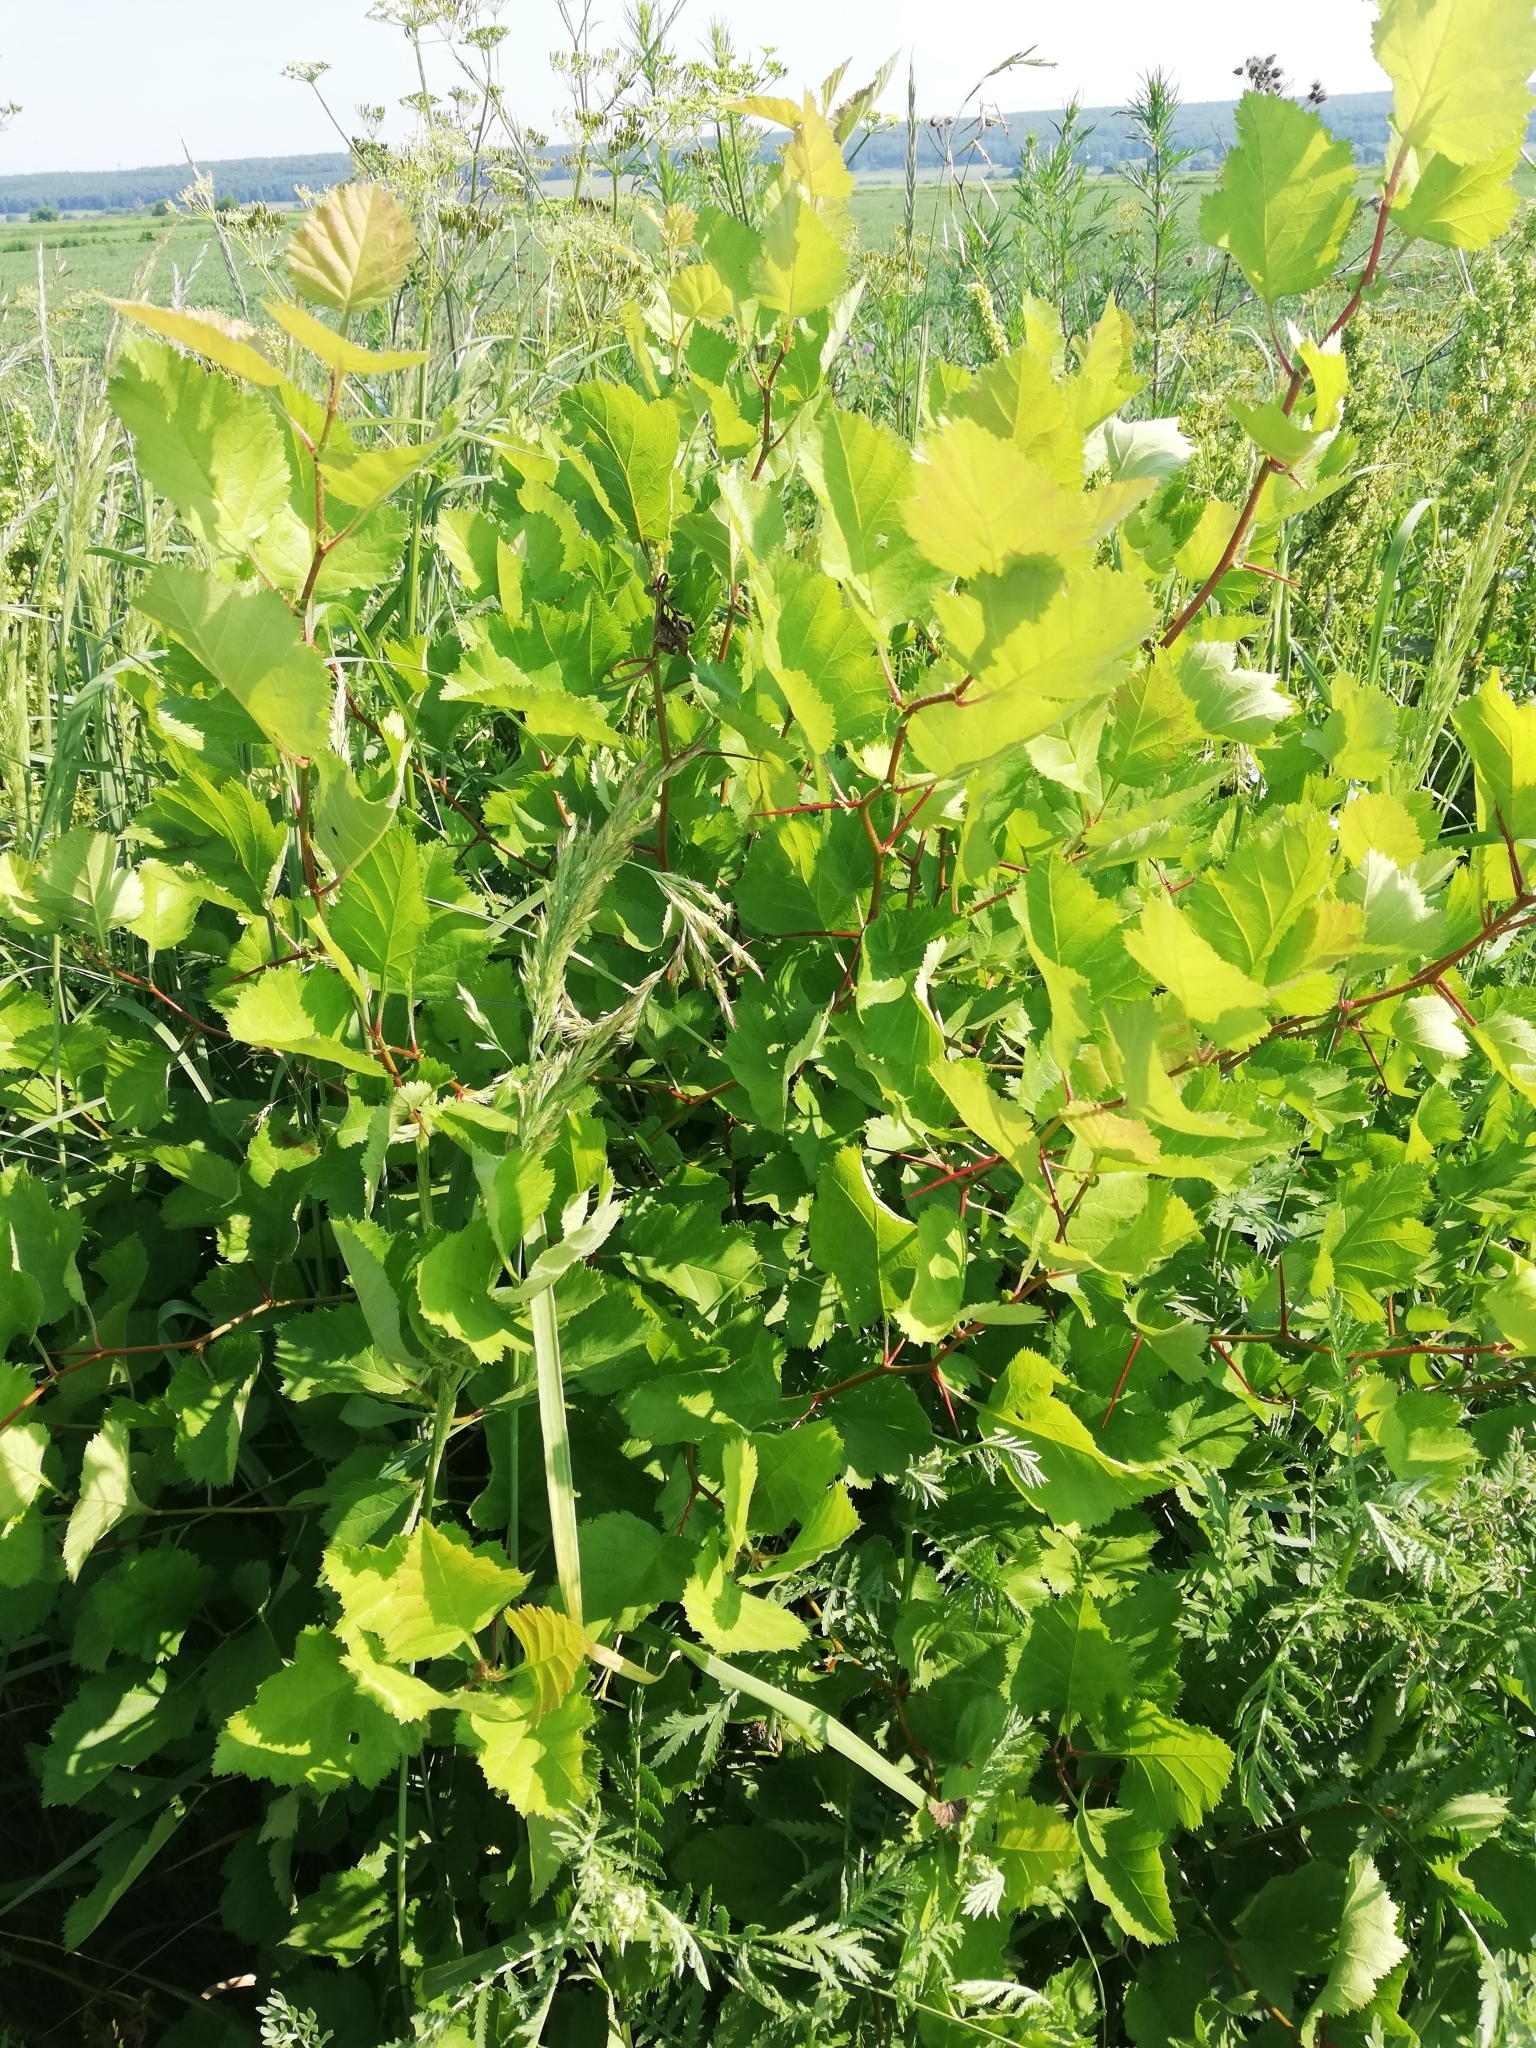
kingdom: Plantae
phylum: Tracheophyta
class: Magnoliopsida
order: Rosales
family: Rosaceae
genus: Crataegus
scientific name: Crataegus sanguinea
